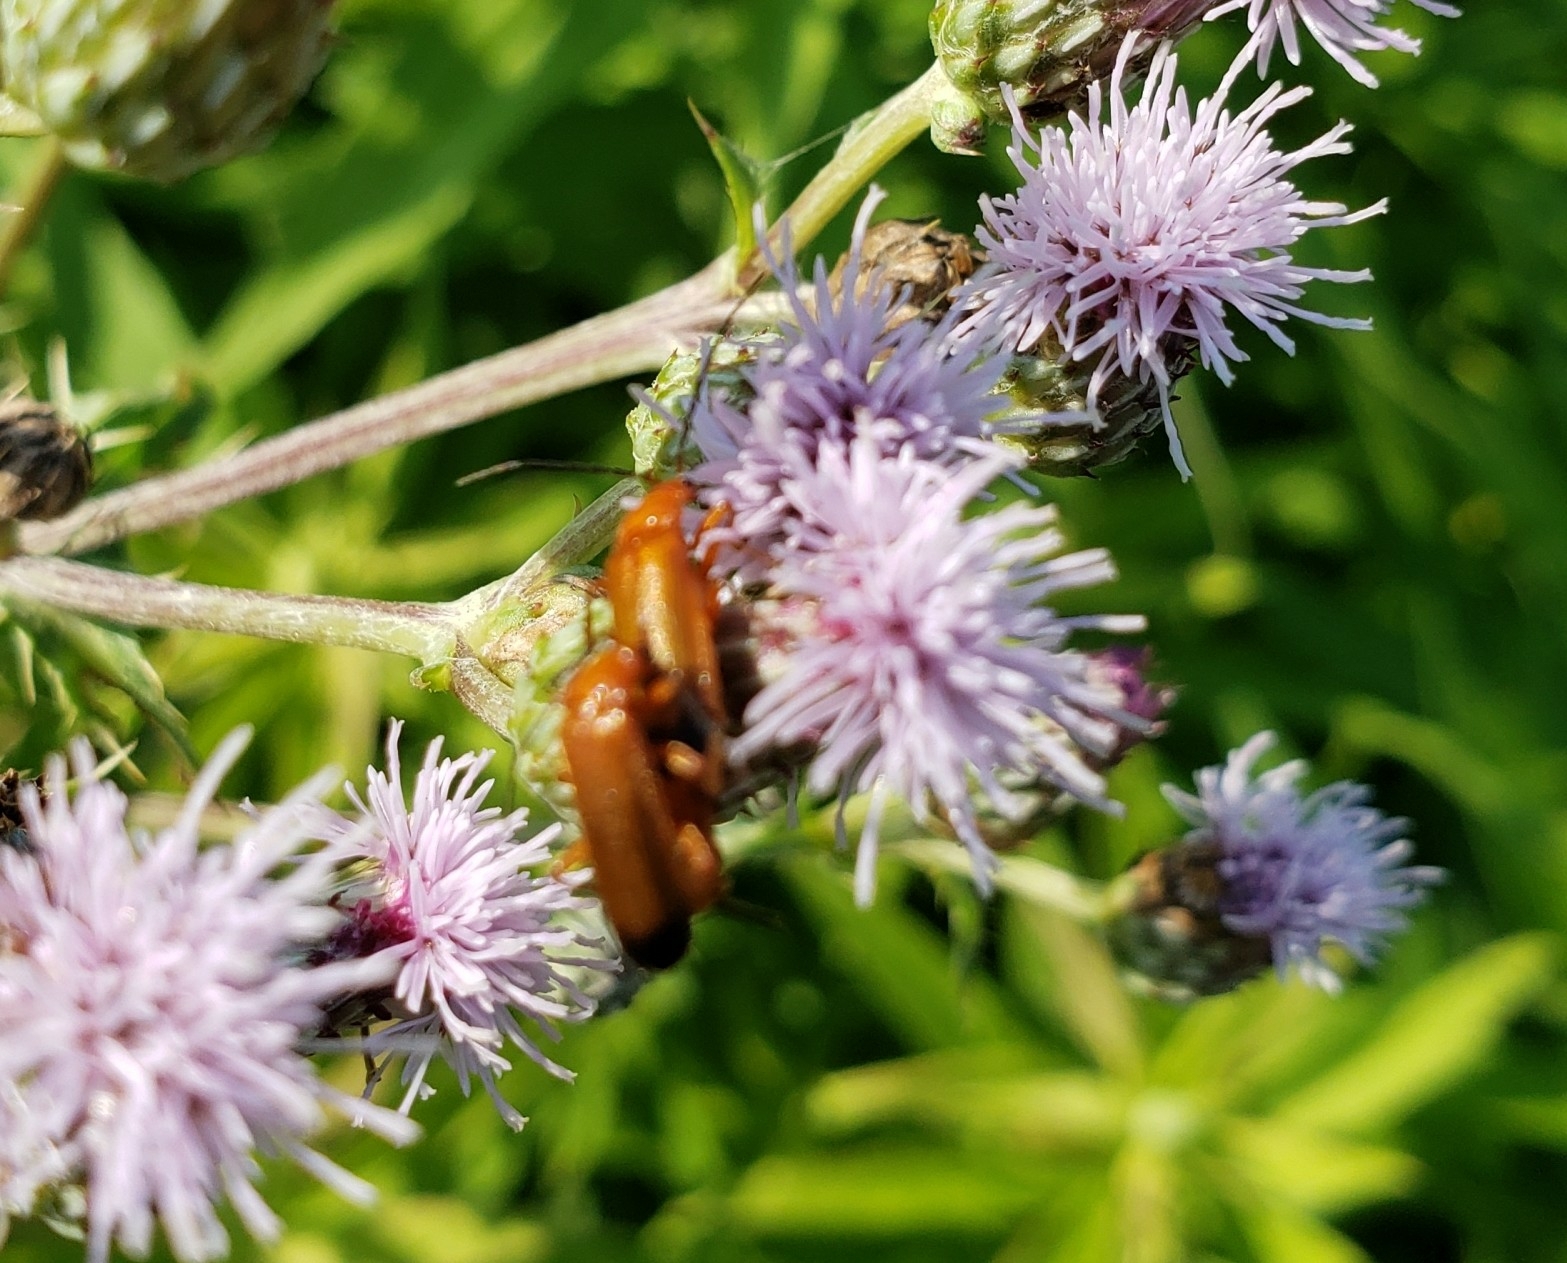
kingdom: Animalia
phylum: Arthropoda
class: Insecta
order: Coleoptera
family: Cantharidae
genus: Rhagonycha
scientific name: Rhagonycha fulva
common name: Common red soldier beetle
